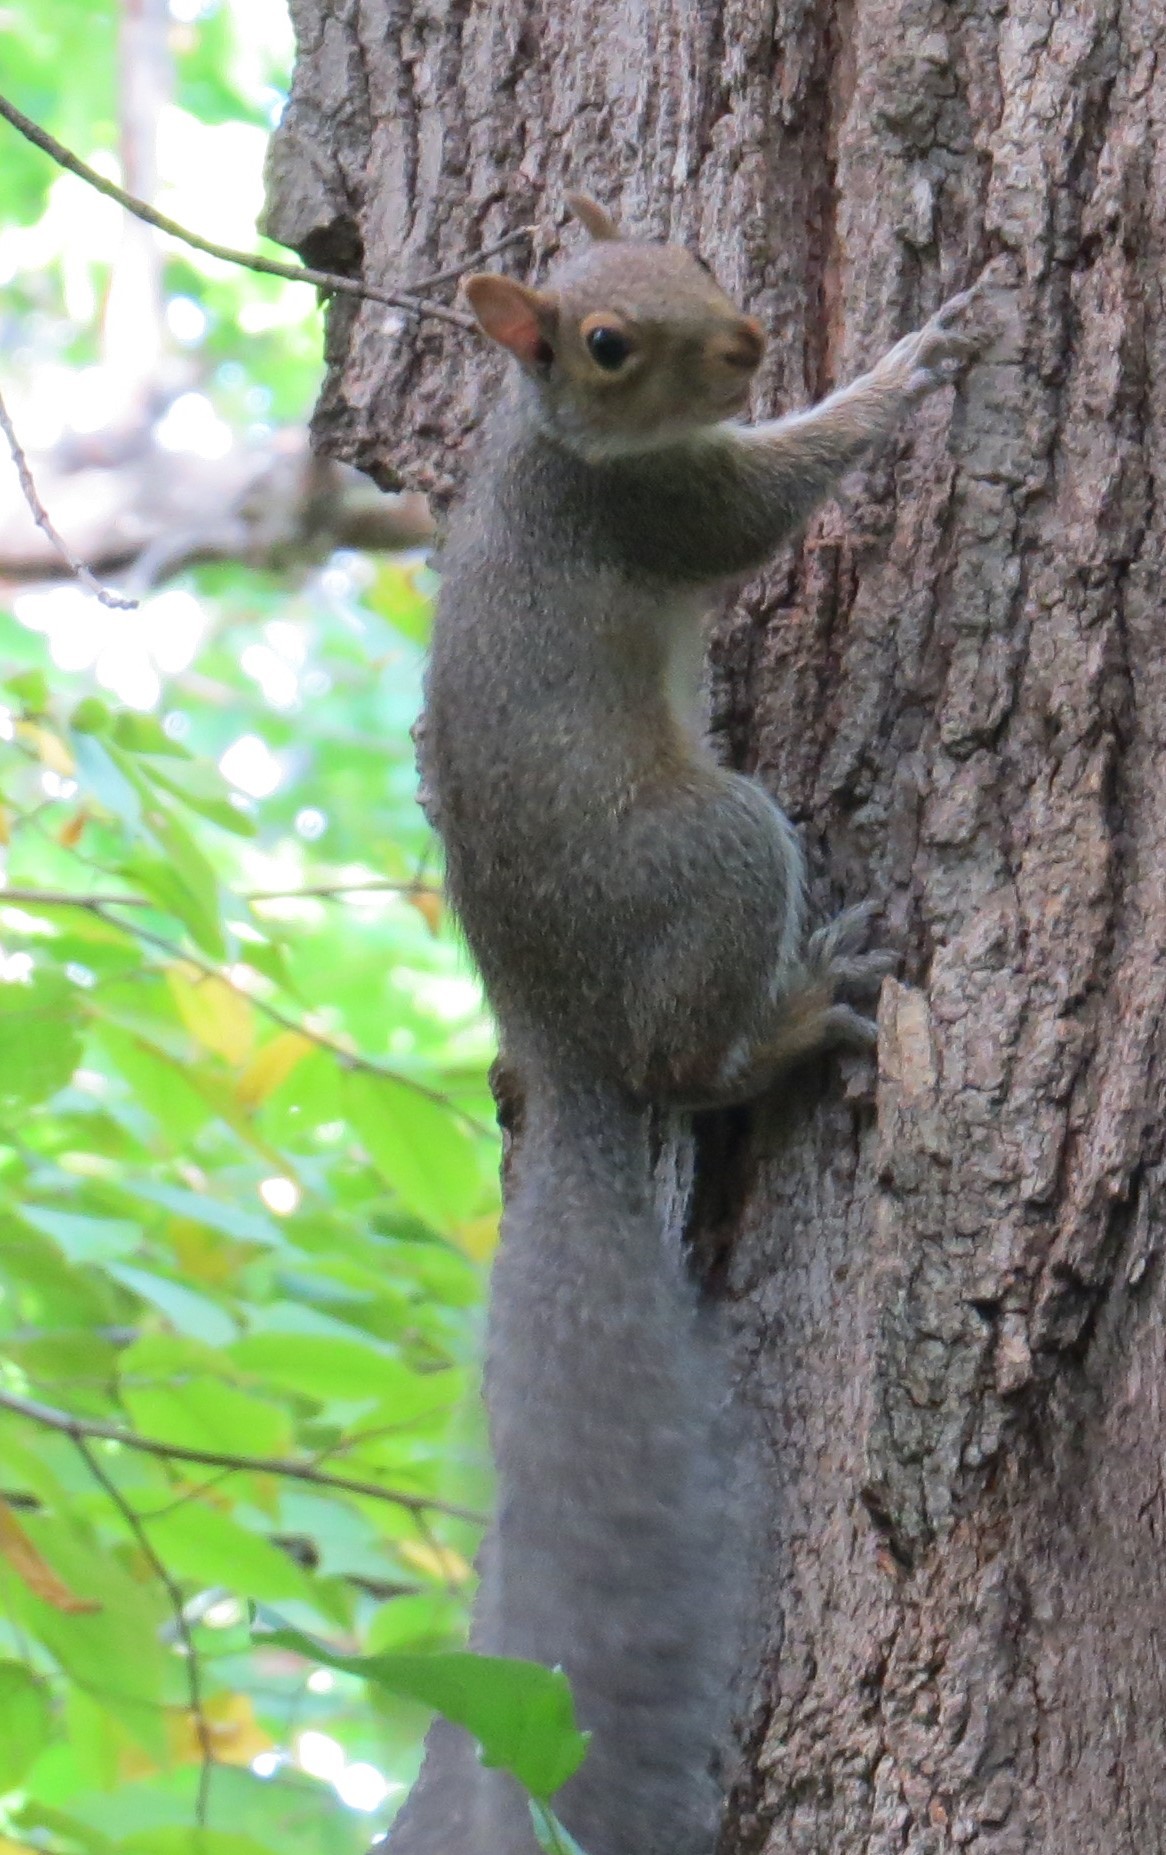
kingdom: Animalia
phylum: Chordata
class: Mammalia
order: Rodentia
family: Sciuridae
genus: Sciurus
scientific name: Sciurus carolinensis
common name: Eastern gray squirrel
